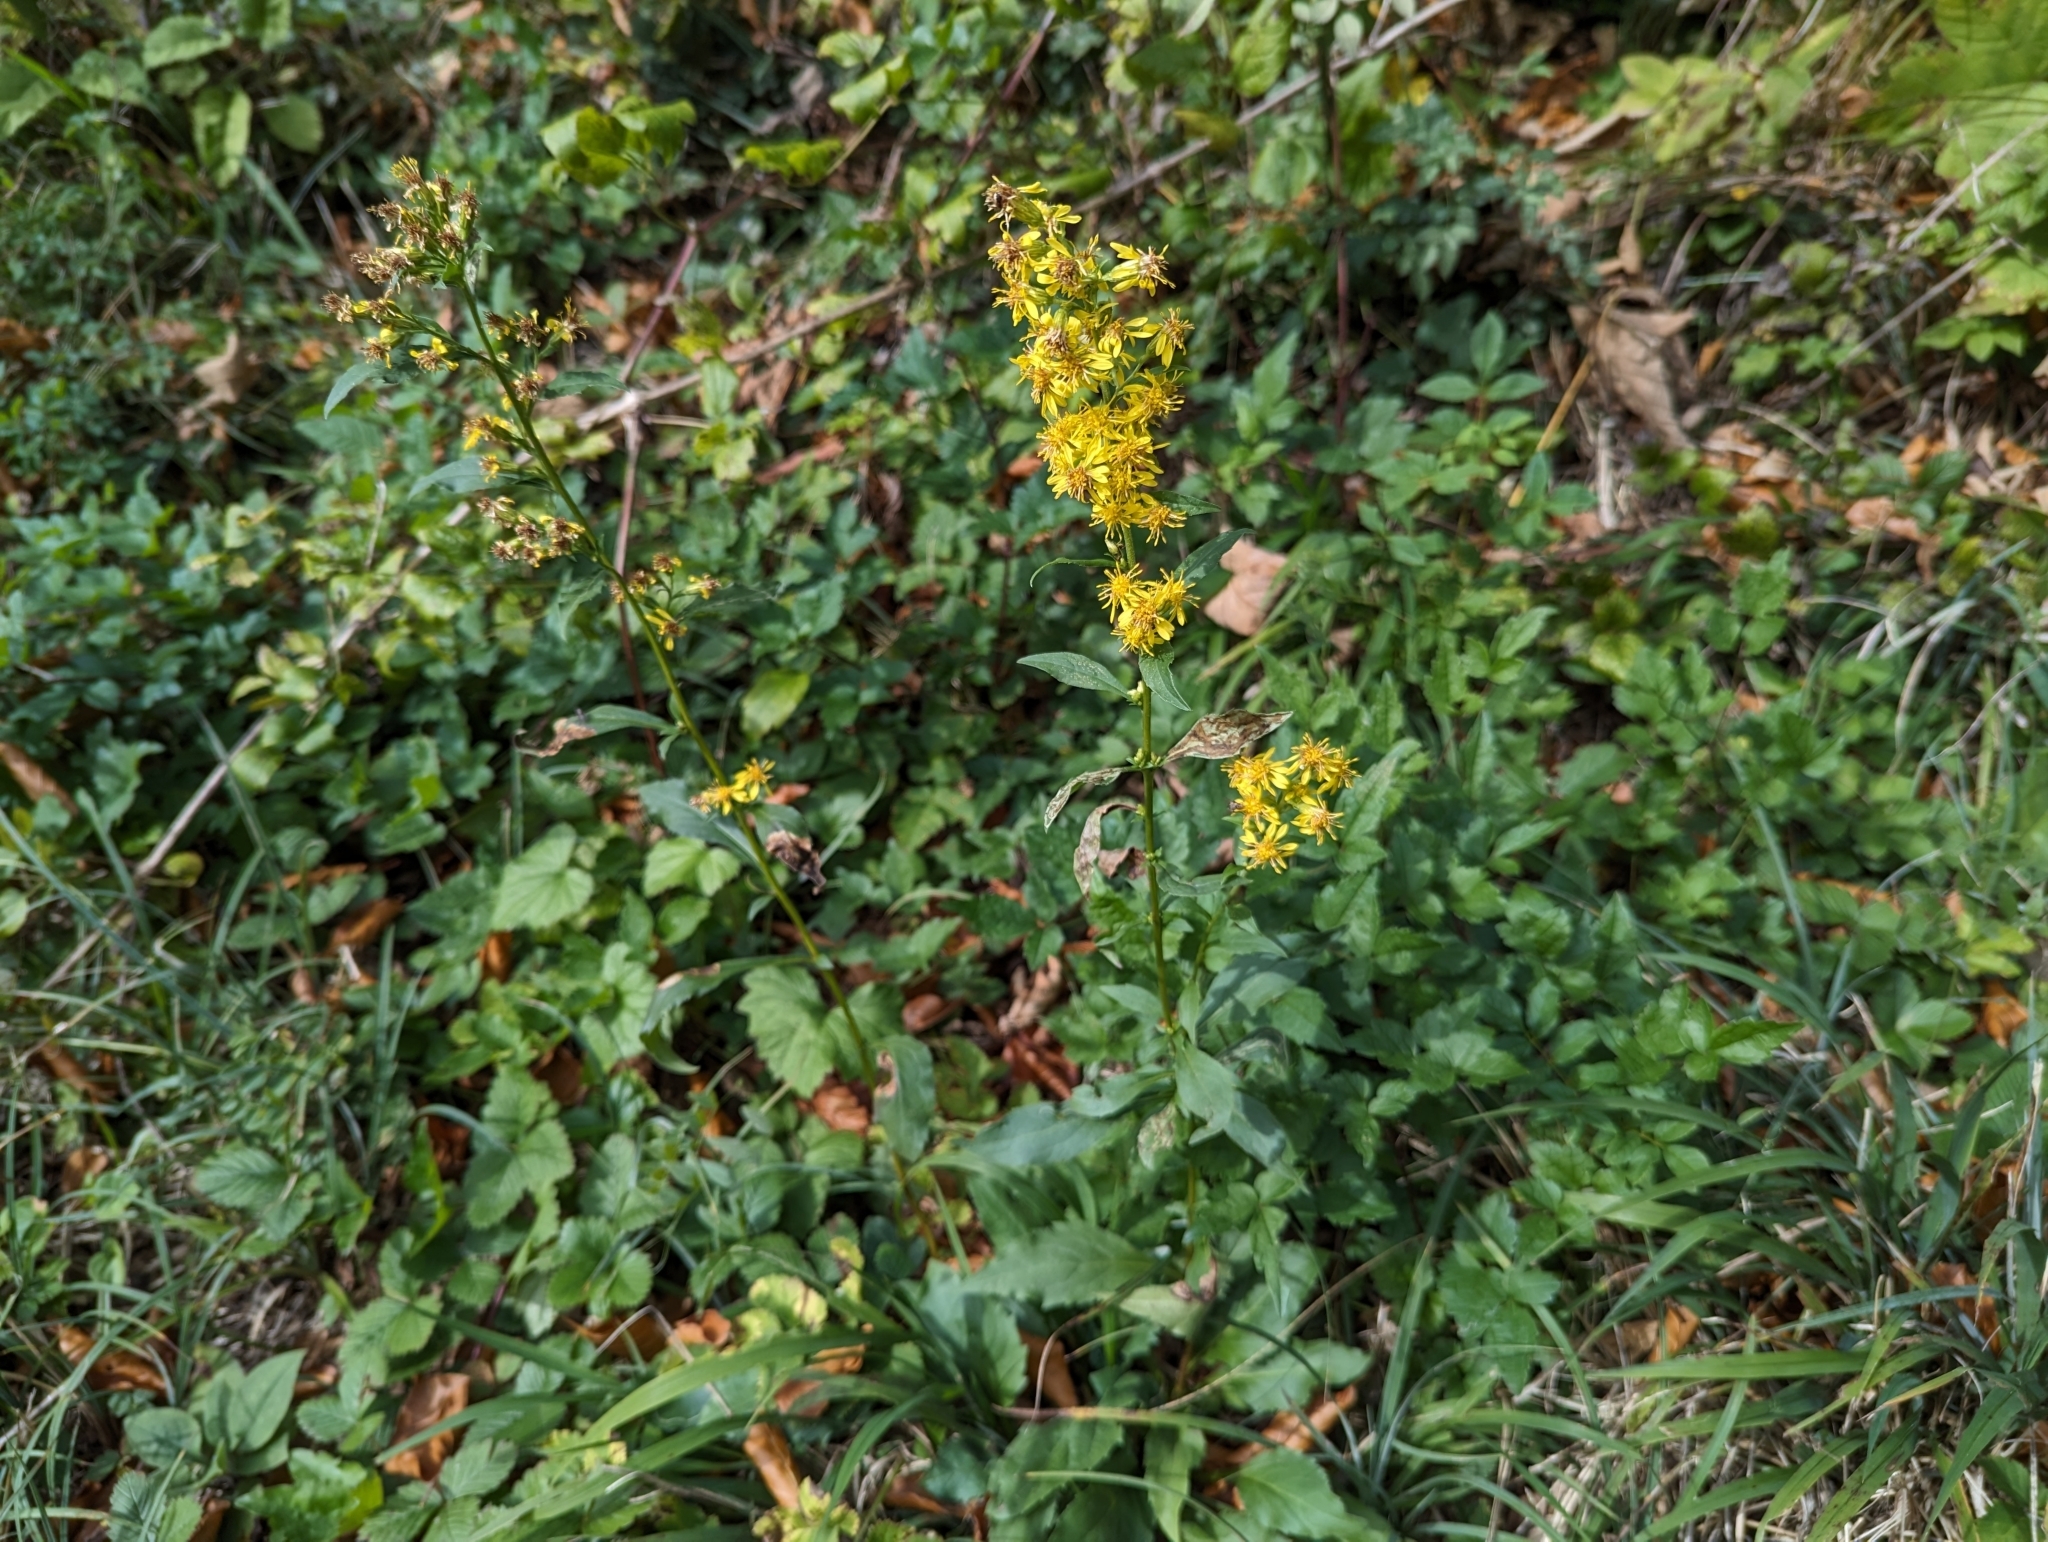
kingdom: Plantae
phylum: Tracheophyta
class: Magnoliopsida
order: Asterales
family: Asteraceae
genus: Solidago
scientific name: Solidago virgaurea
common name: Goldenrod
